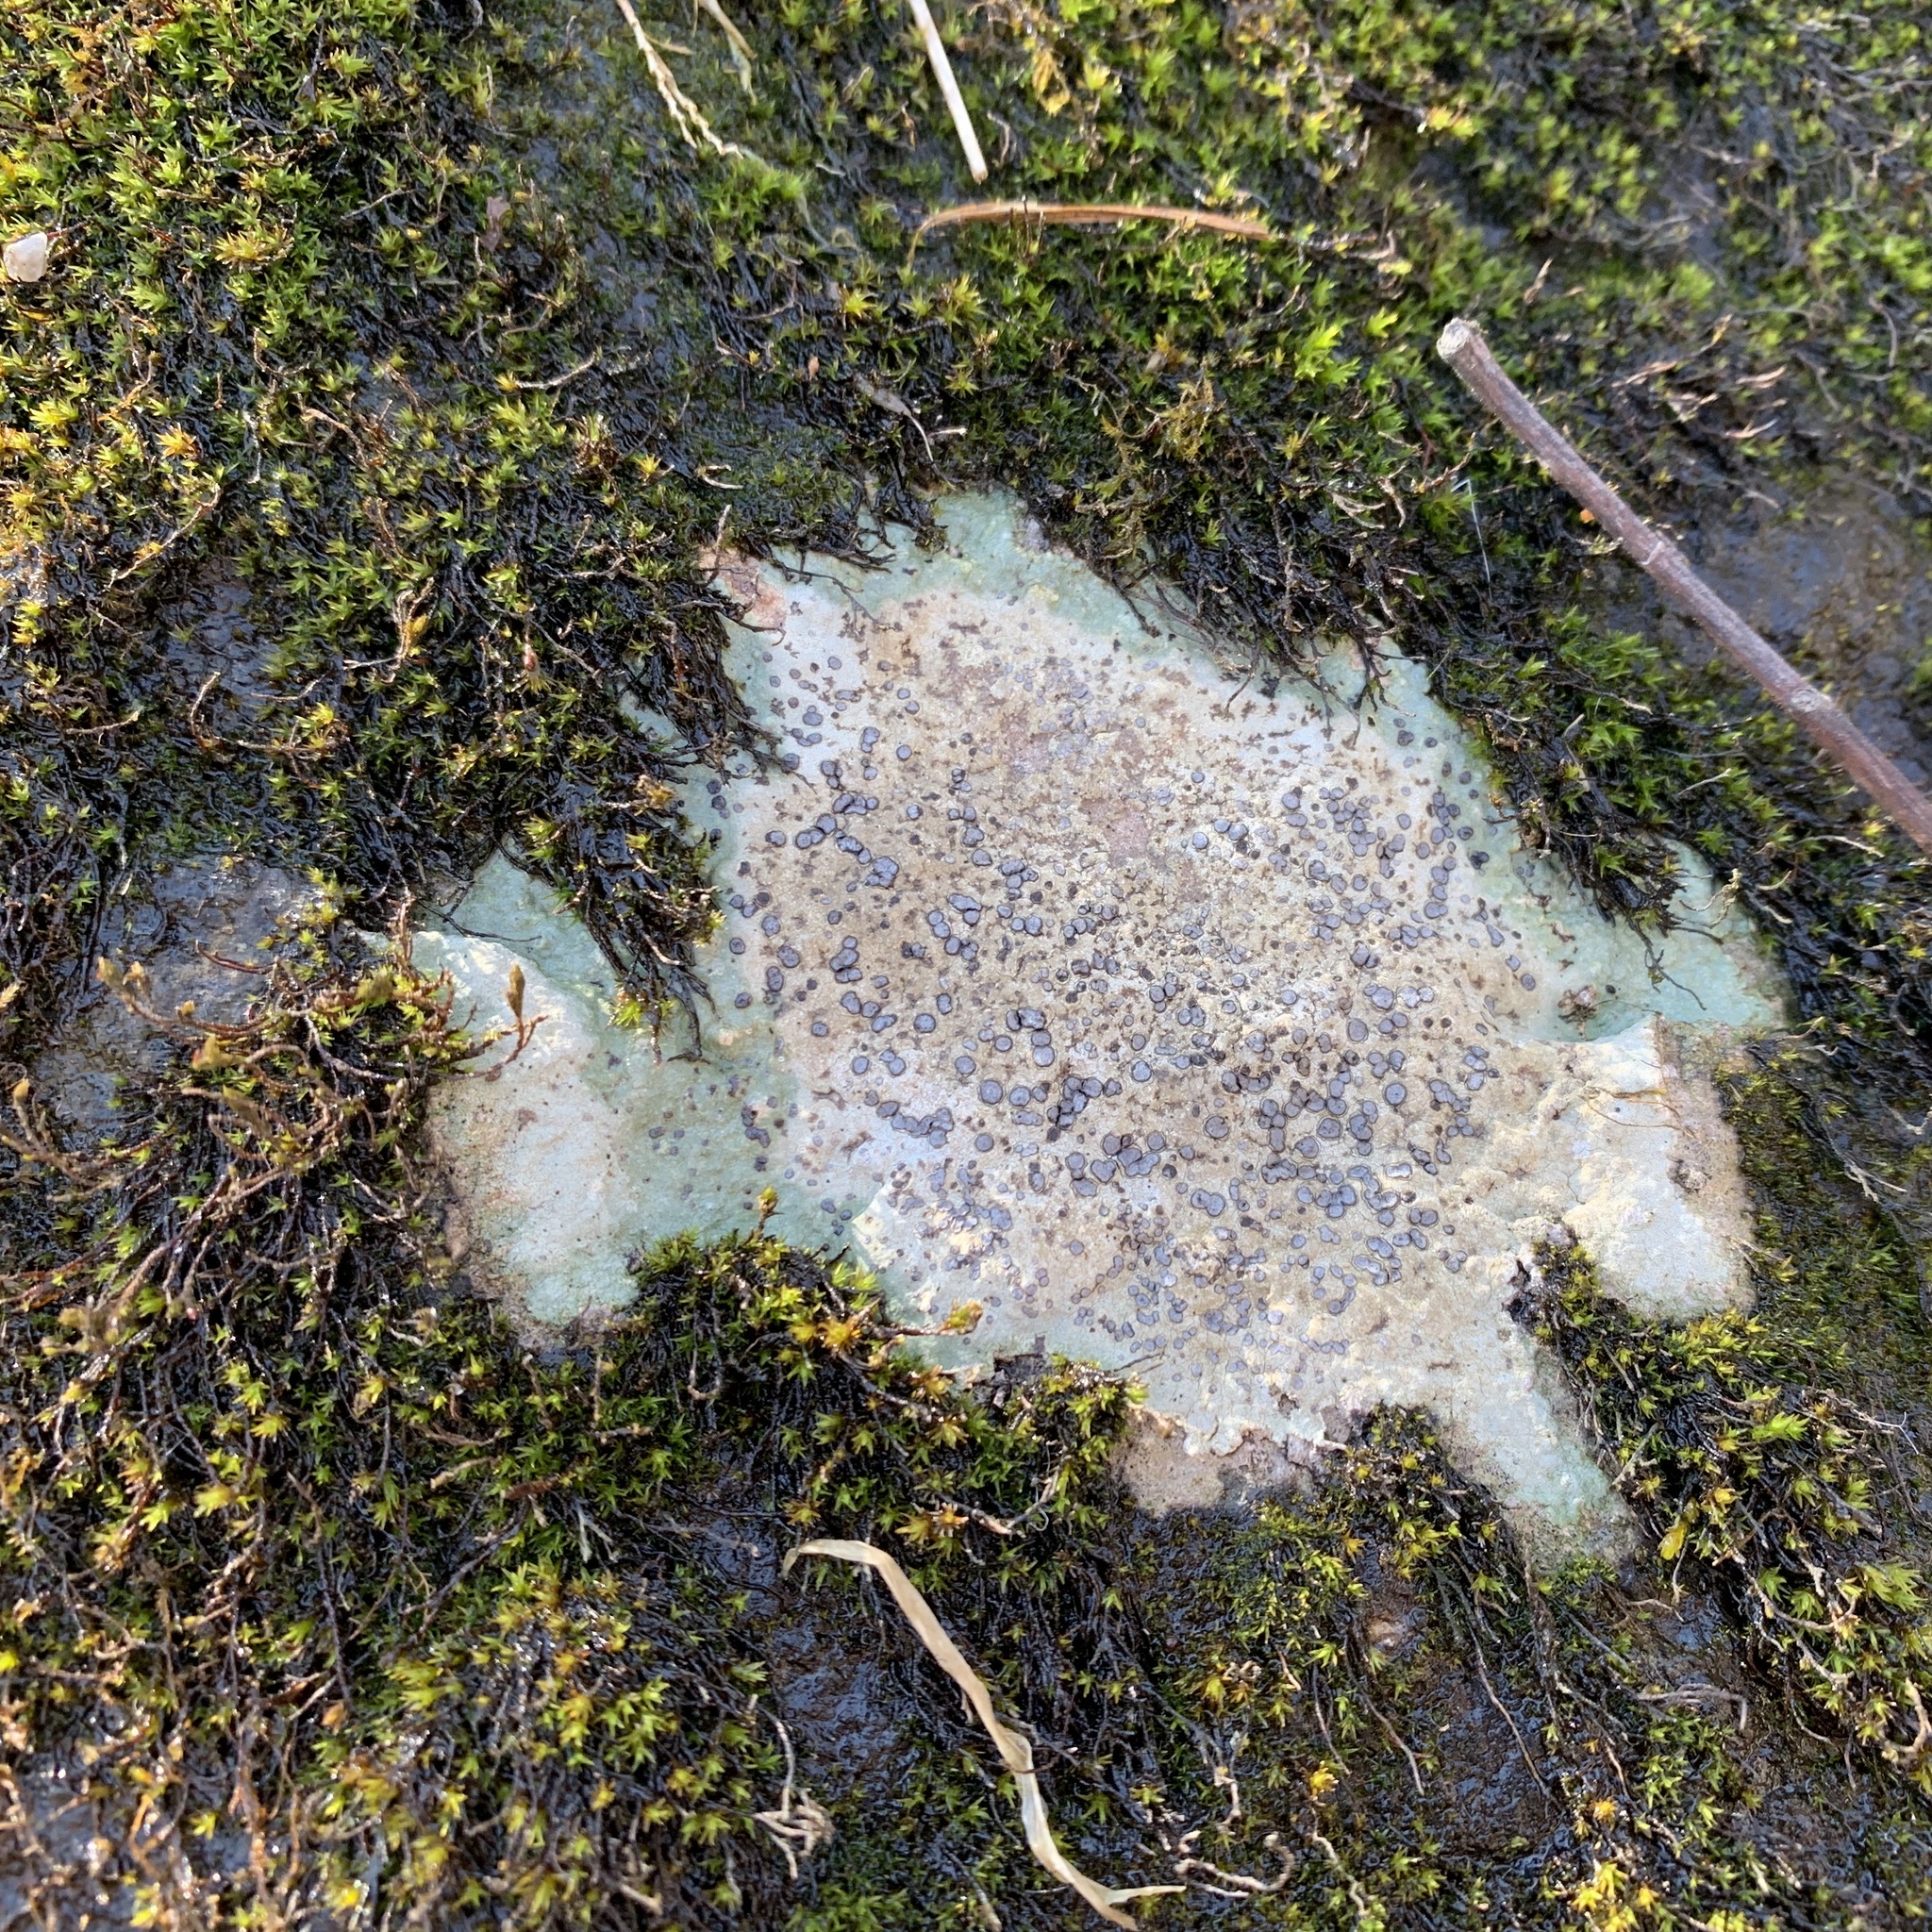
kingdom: Fungi
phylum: Ascomycota
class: Lecanoromycetes
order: Lecideales
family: Lecideaceae
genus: Porpidia
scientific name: Porpidia albocaerulescens
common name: Smokey-eyed boulder lichen
